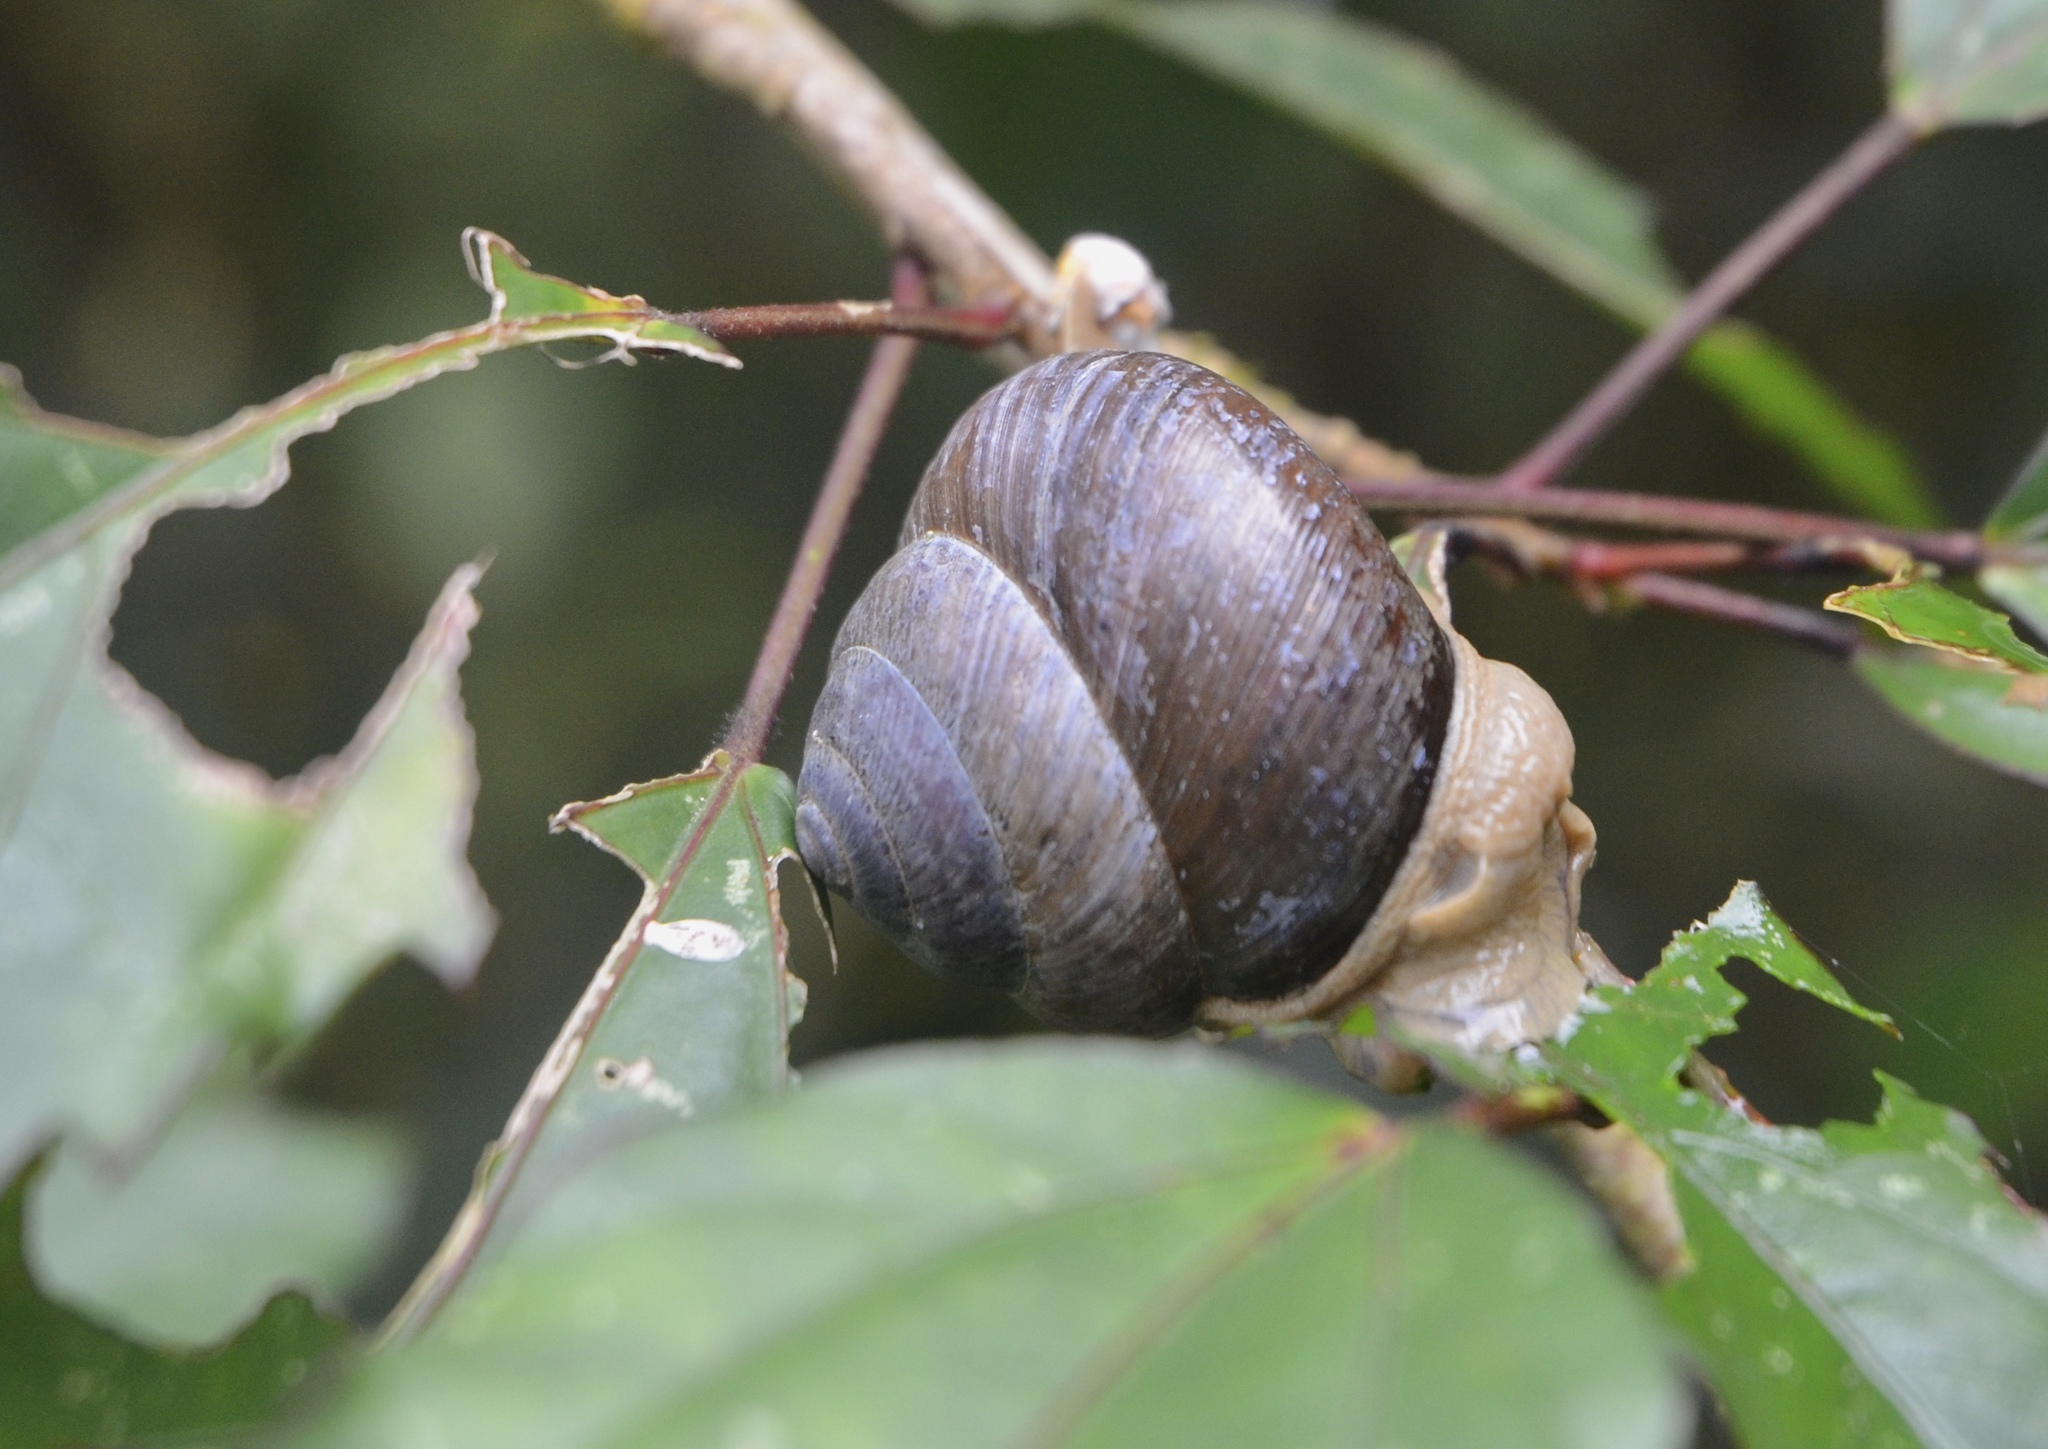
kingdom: Animalia
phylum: Mollusca
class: Gastropoda
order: Stylommatophora
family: Dyakiidae
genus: Asperitas
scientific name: Asperitas sparsa
